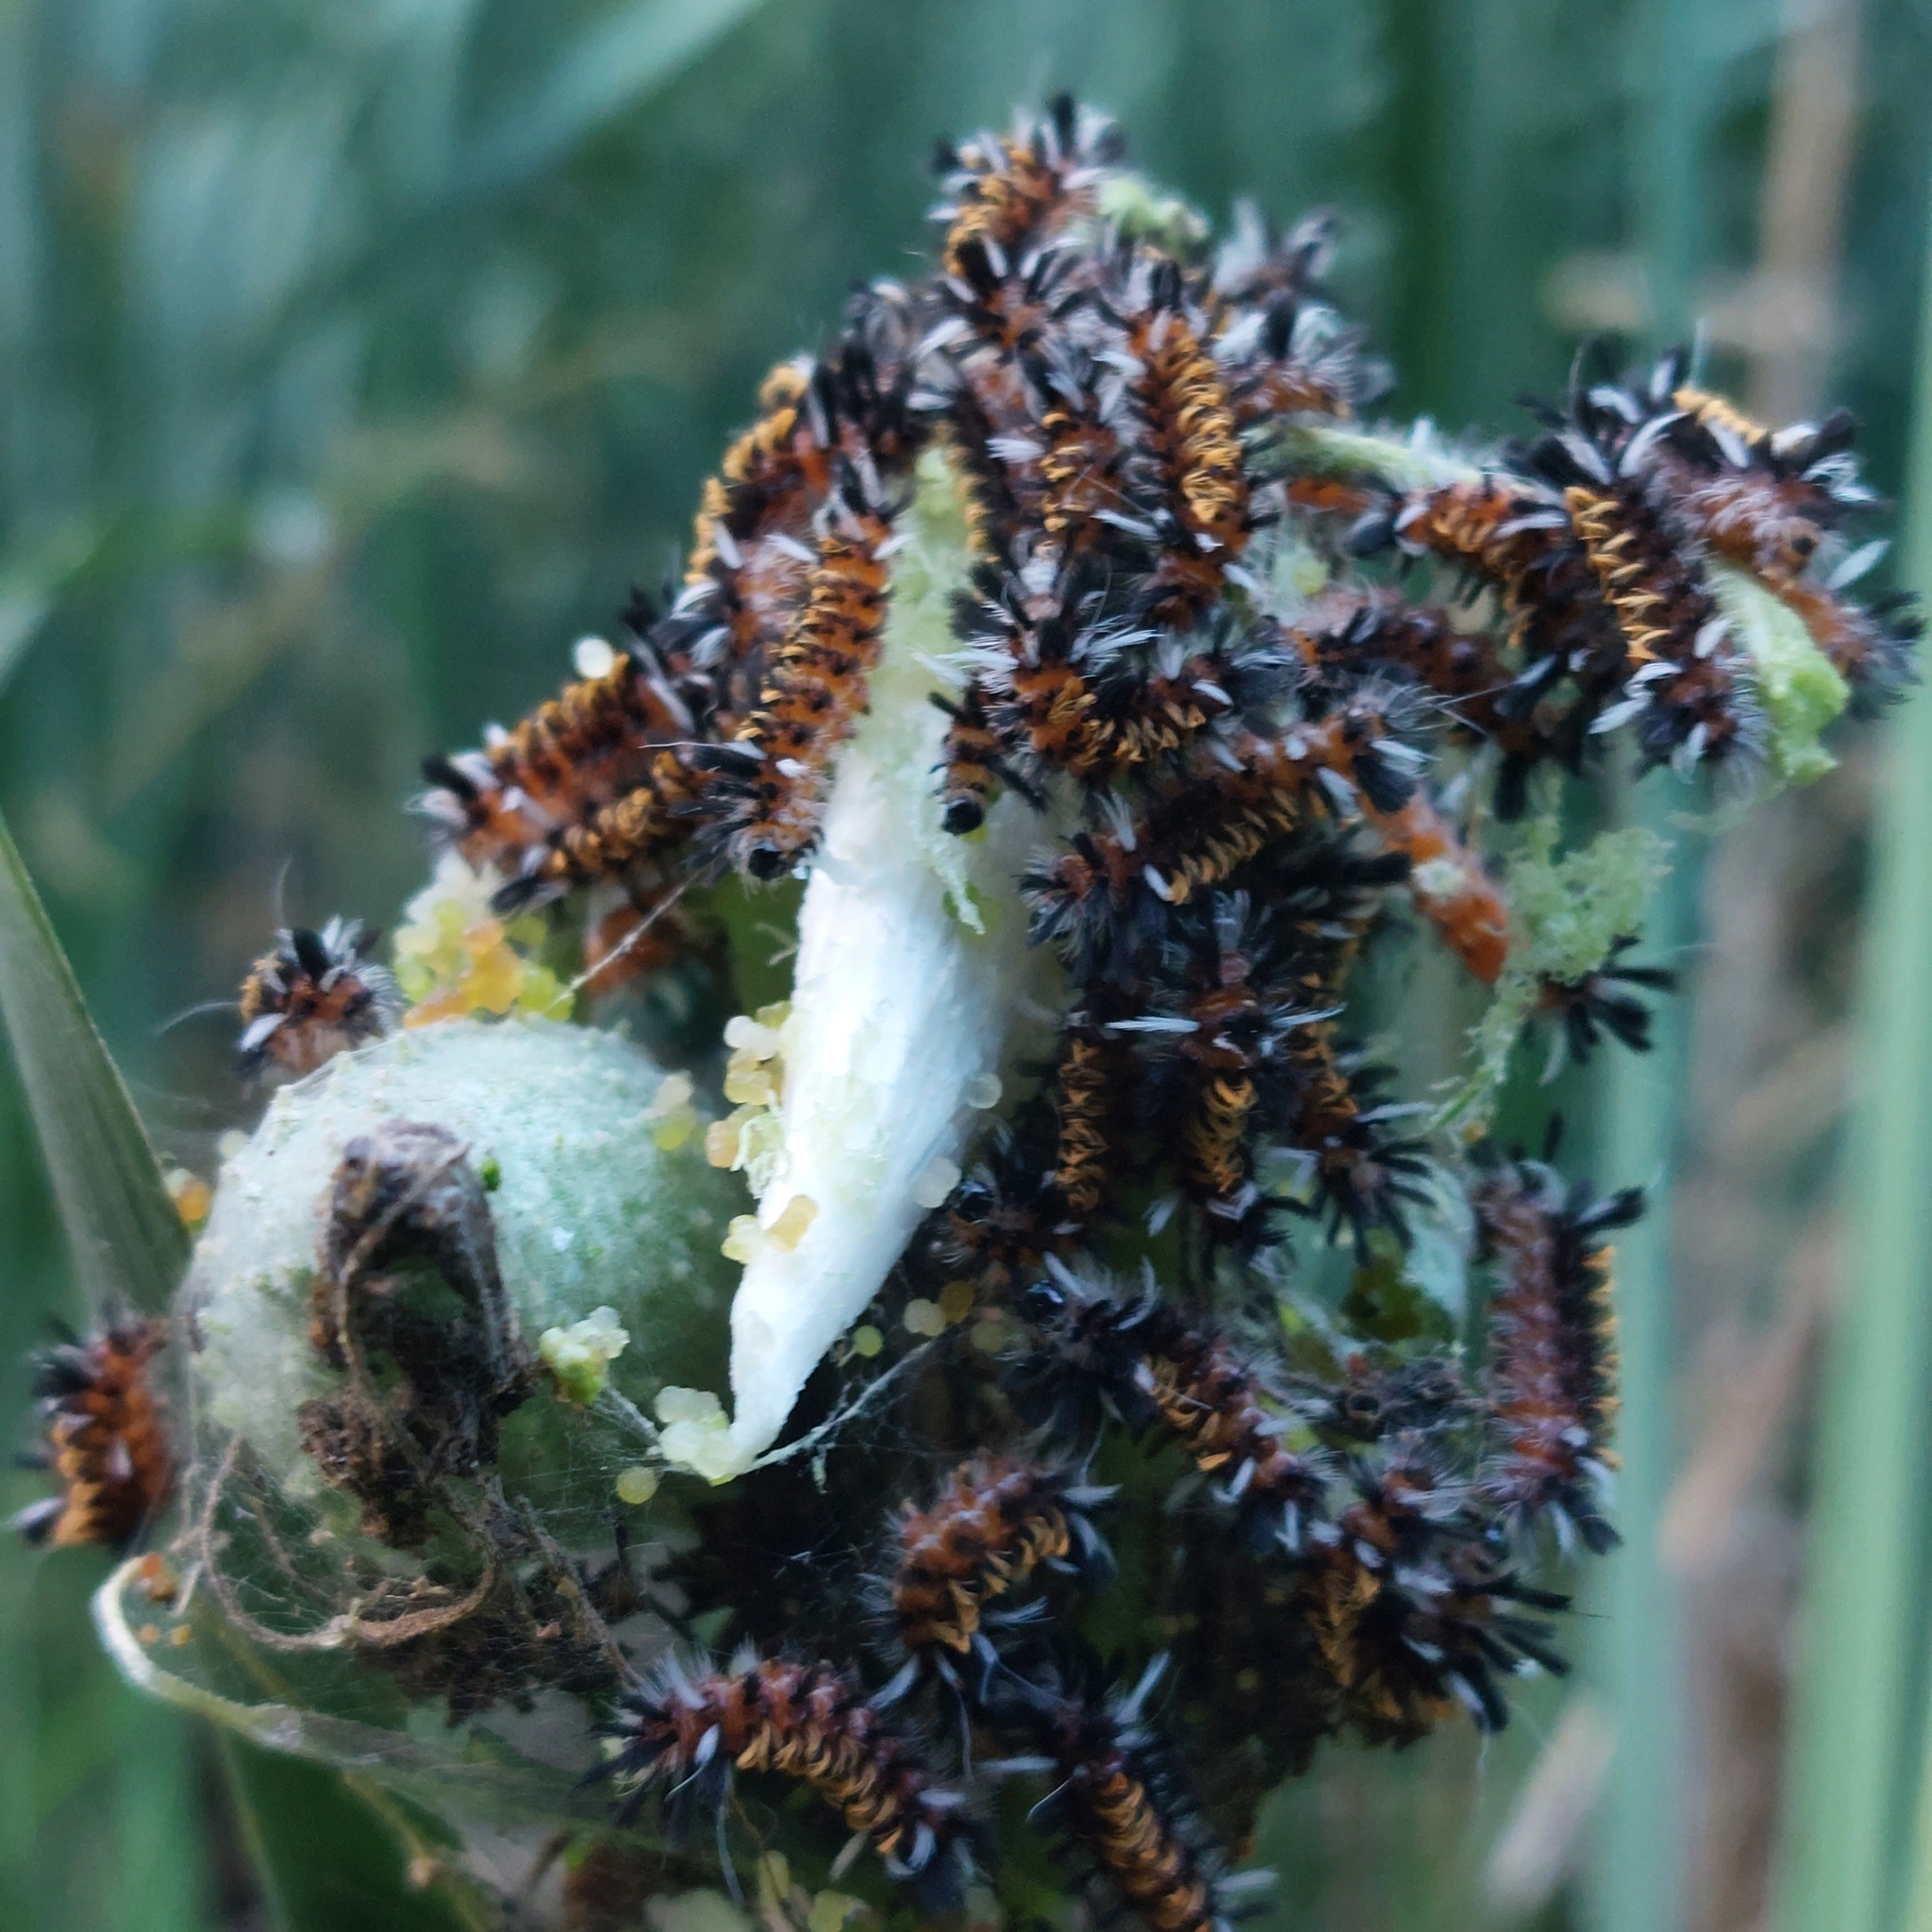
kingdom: Animalia
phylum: Arthropoda
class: Insecta
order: Lepidoptera
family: Erebidae
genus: Euchaetes
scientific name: Euchaetes egle
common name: Milkweed tussock moth
